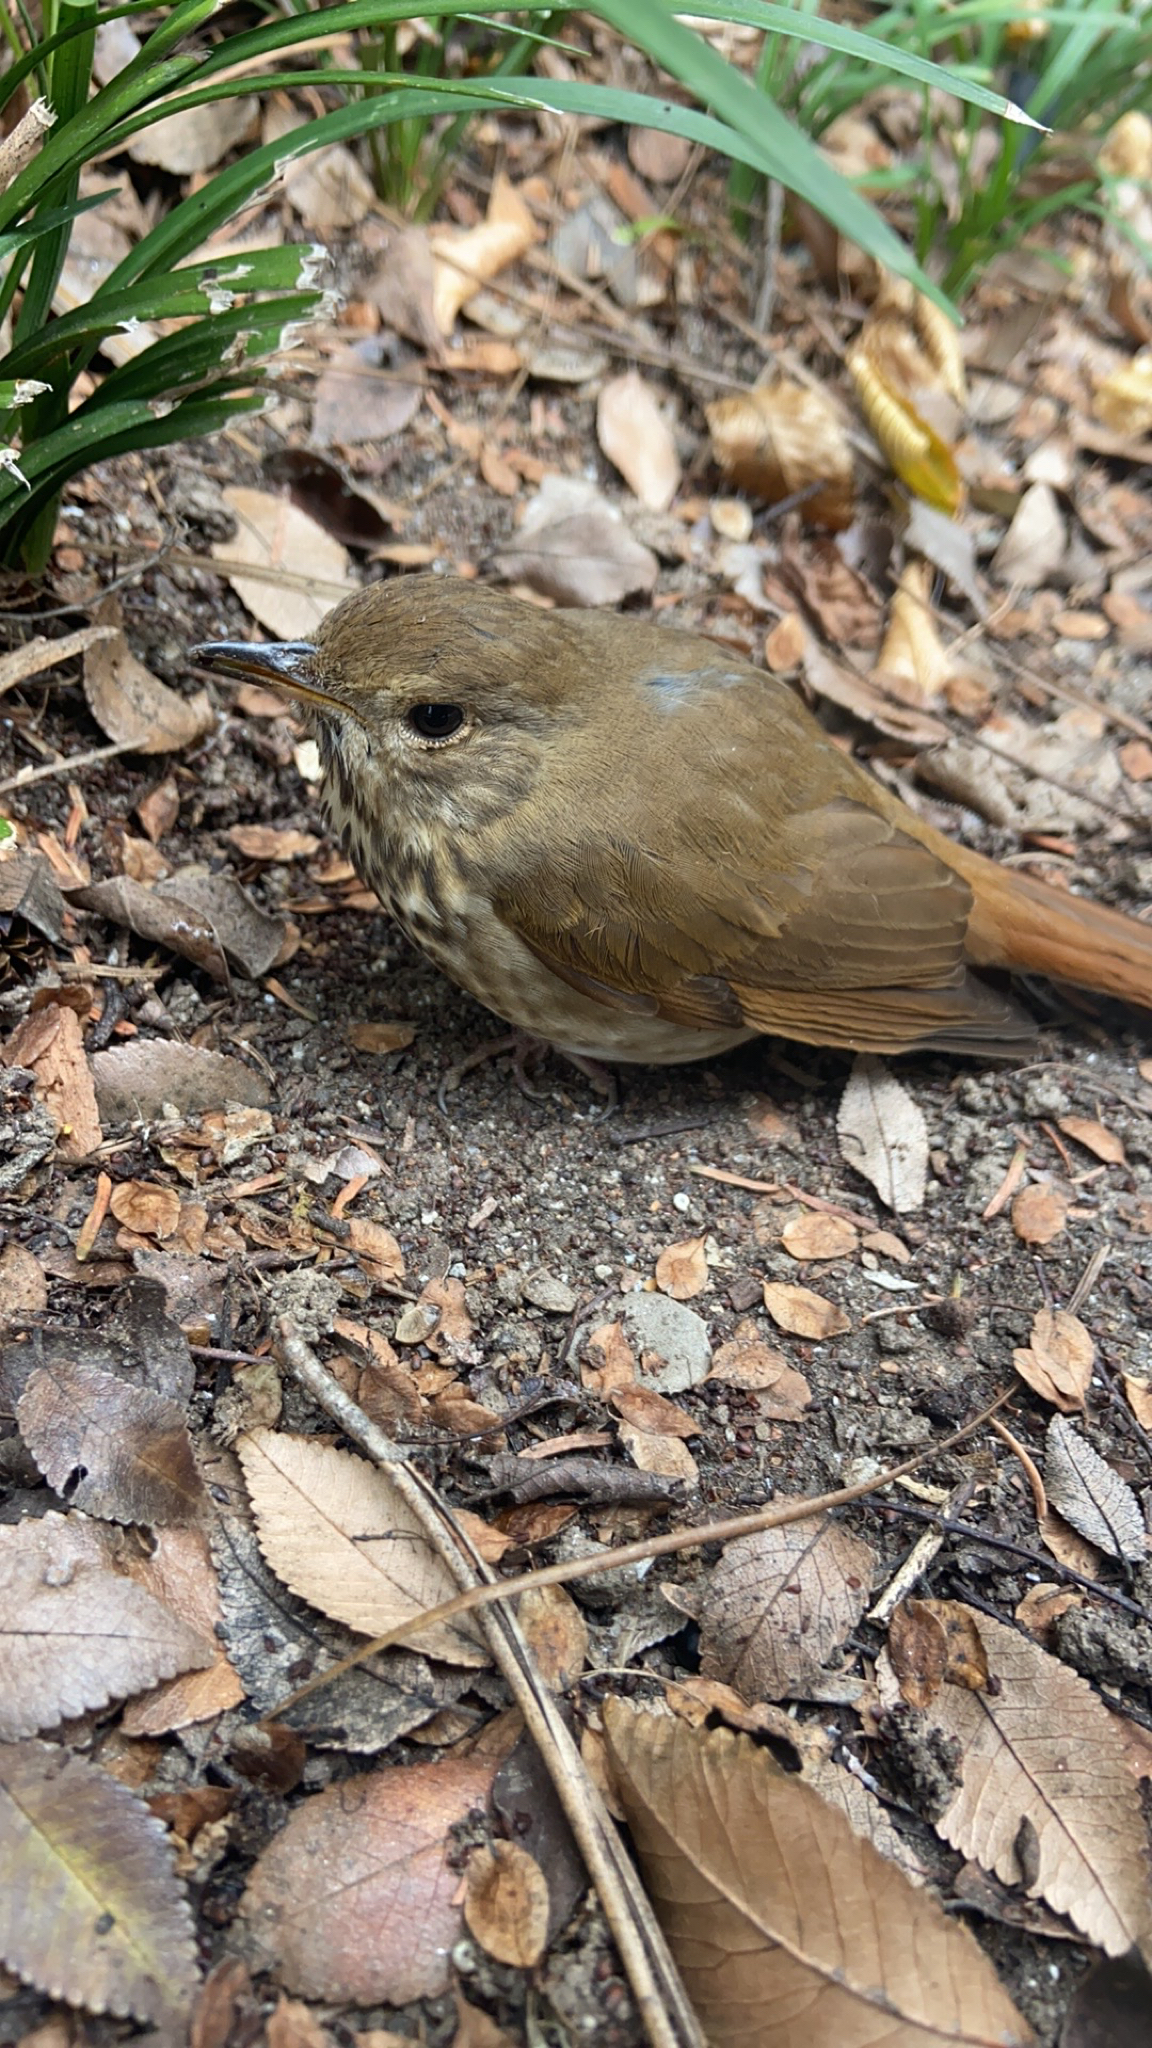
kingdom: Animalia
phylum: Chordata
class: Aves
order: Passeriformes
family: Turdidae
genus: Catharus
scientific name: Catharus guttatus
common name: Hermit thrush
